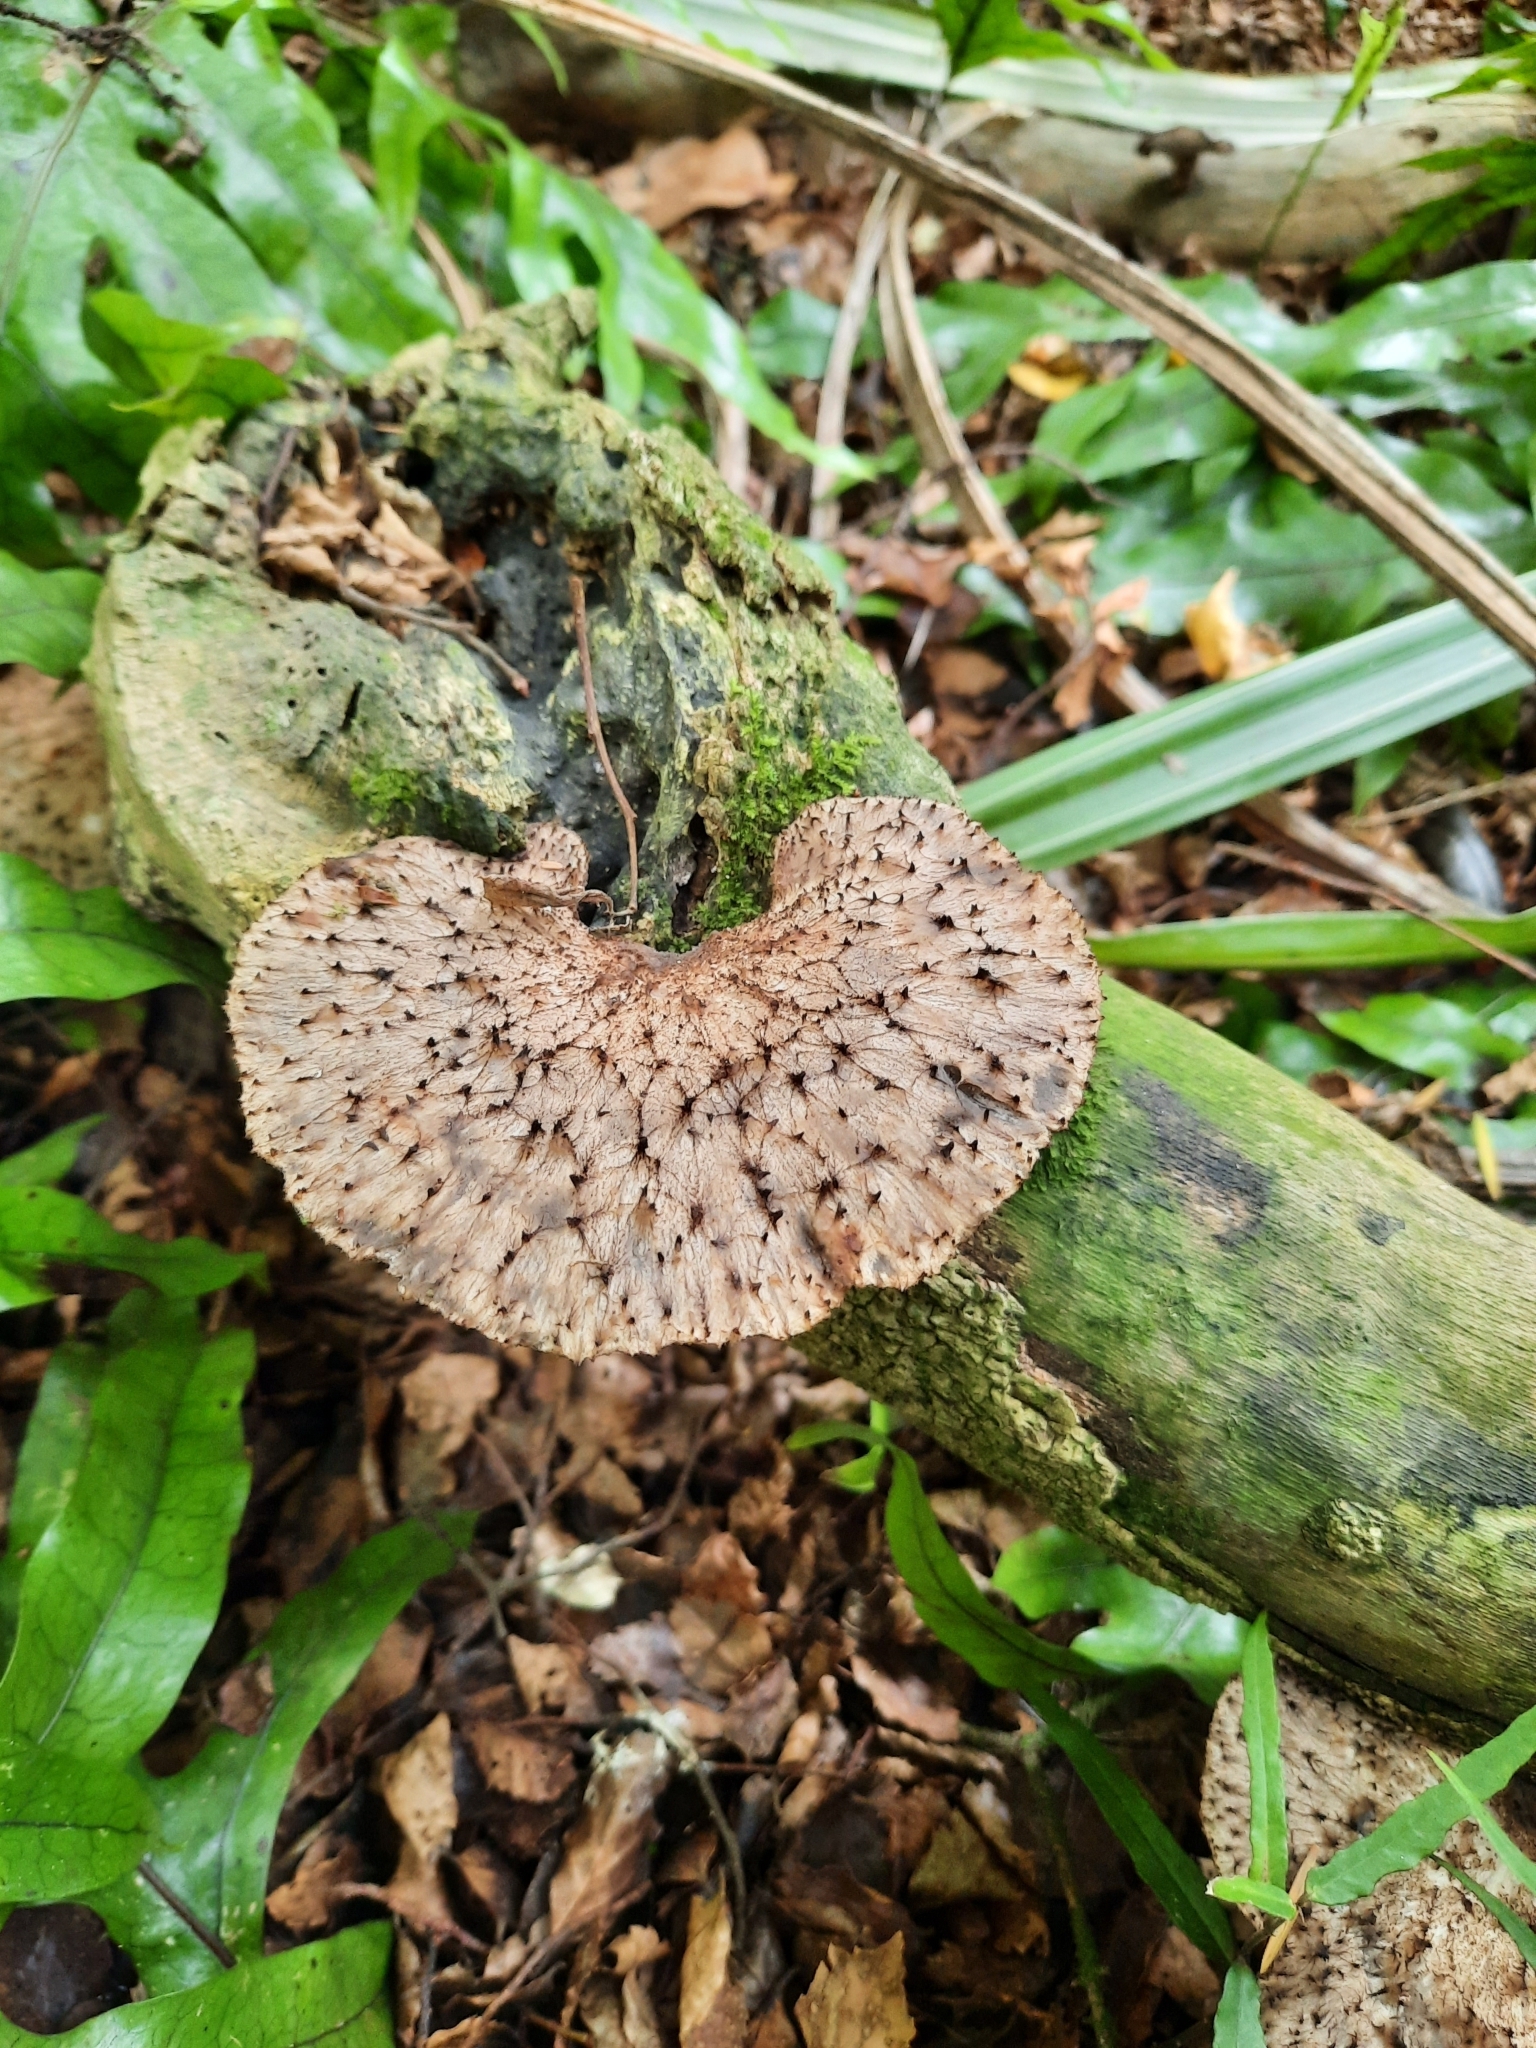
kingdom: Fungi
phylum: Basidiomycota
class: Agaricomycetes
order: Polyporales
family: Polyporaceae
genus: Bresadolia
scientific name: Bresadolia
